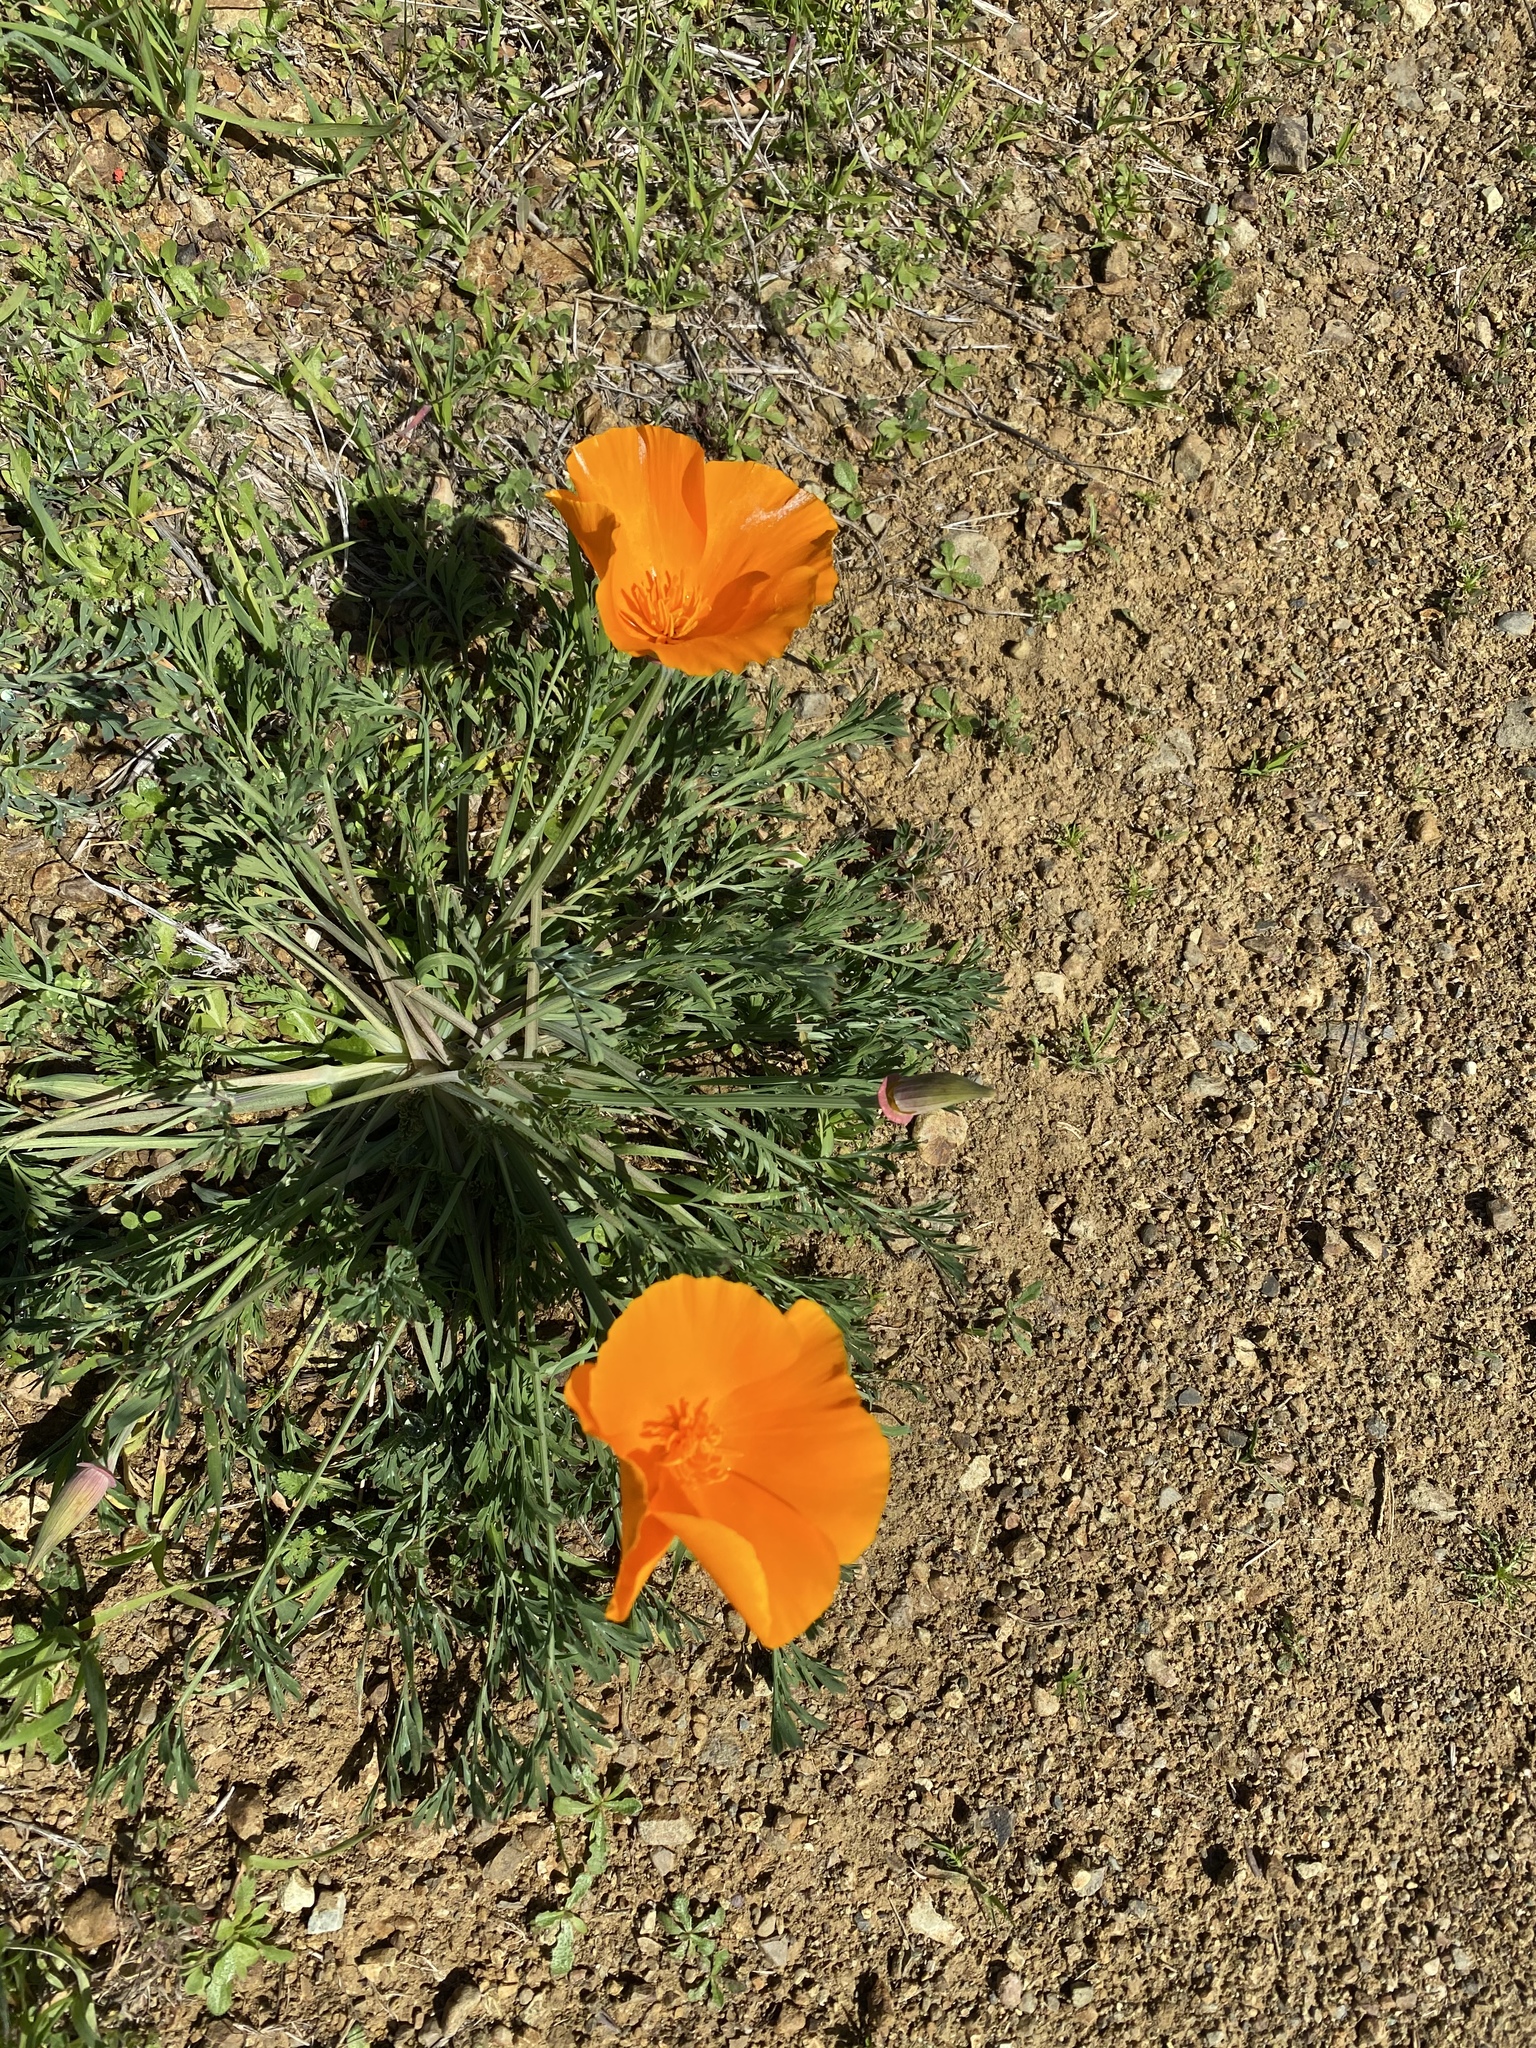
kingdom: Plantae
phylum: Tracheophyta
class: Magnoliopsida
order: Ranunculales
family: Papaveraceae
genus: Eschscholzia
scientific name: Eschscholzia californica
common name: California poppy
